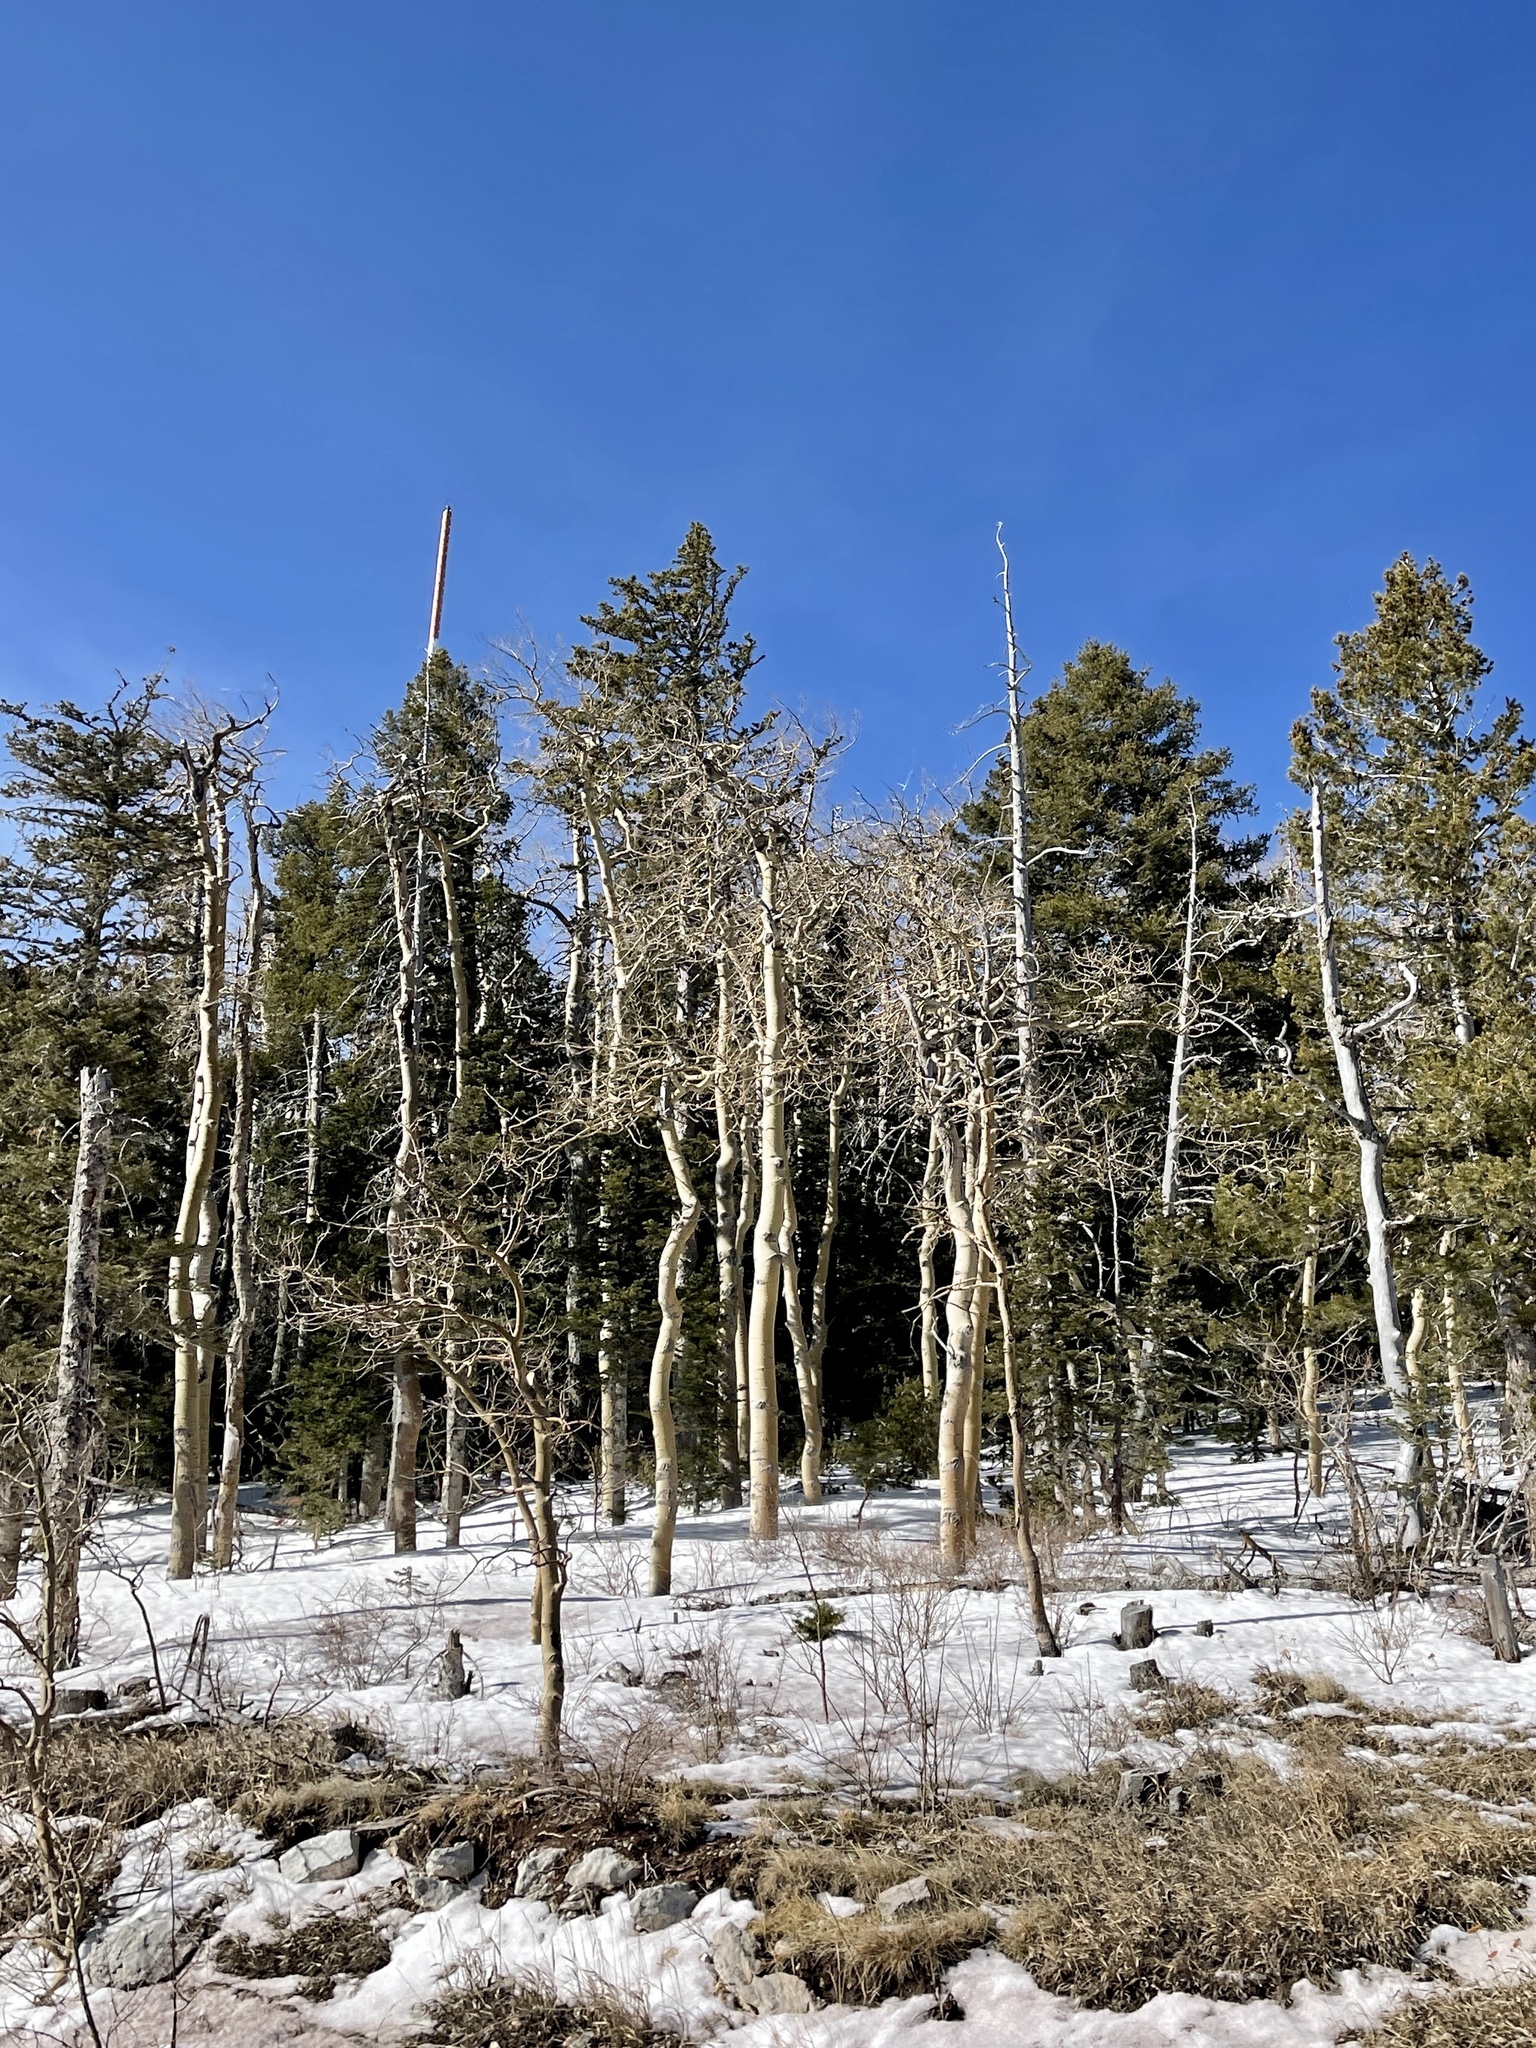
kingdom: Plantae
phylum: Tracheophyta
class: Magnoliopsida
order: Malpighiales
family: Salicaceae
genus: Populus
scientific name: Populus tremuloides
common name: Quaking aspen
